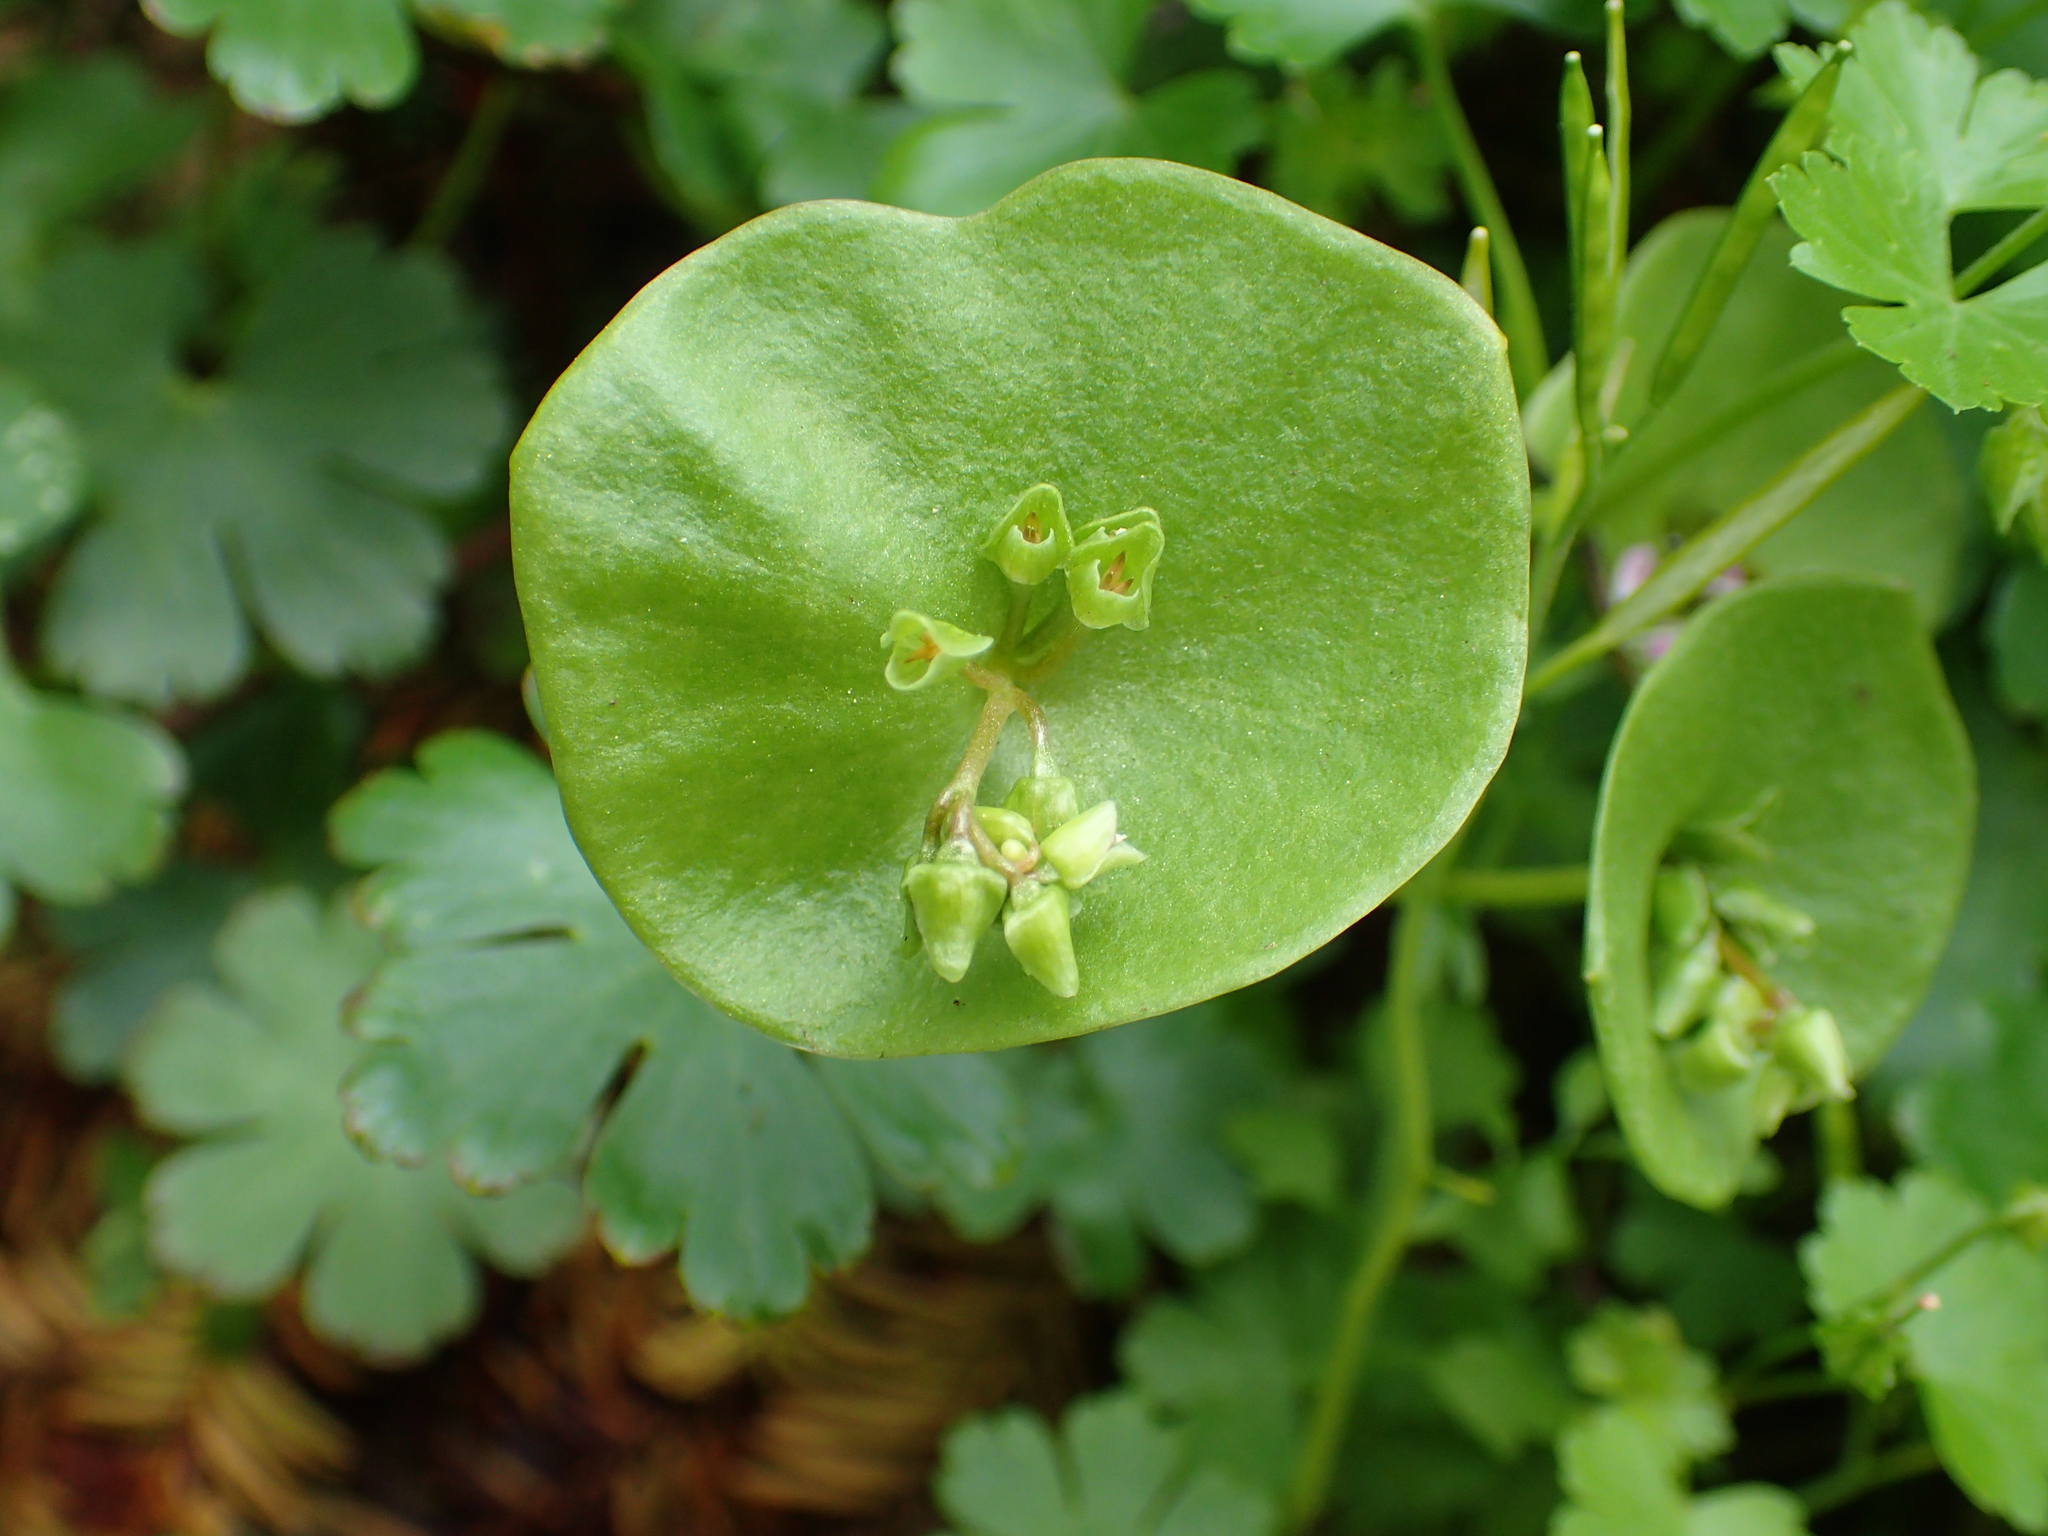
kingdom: Plantae
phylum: Tracheophyta
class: Magnoliopsida
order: Caryophyllales
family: Montiaceae
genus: Claytonia
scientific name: Claytonia perfoliata
